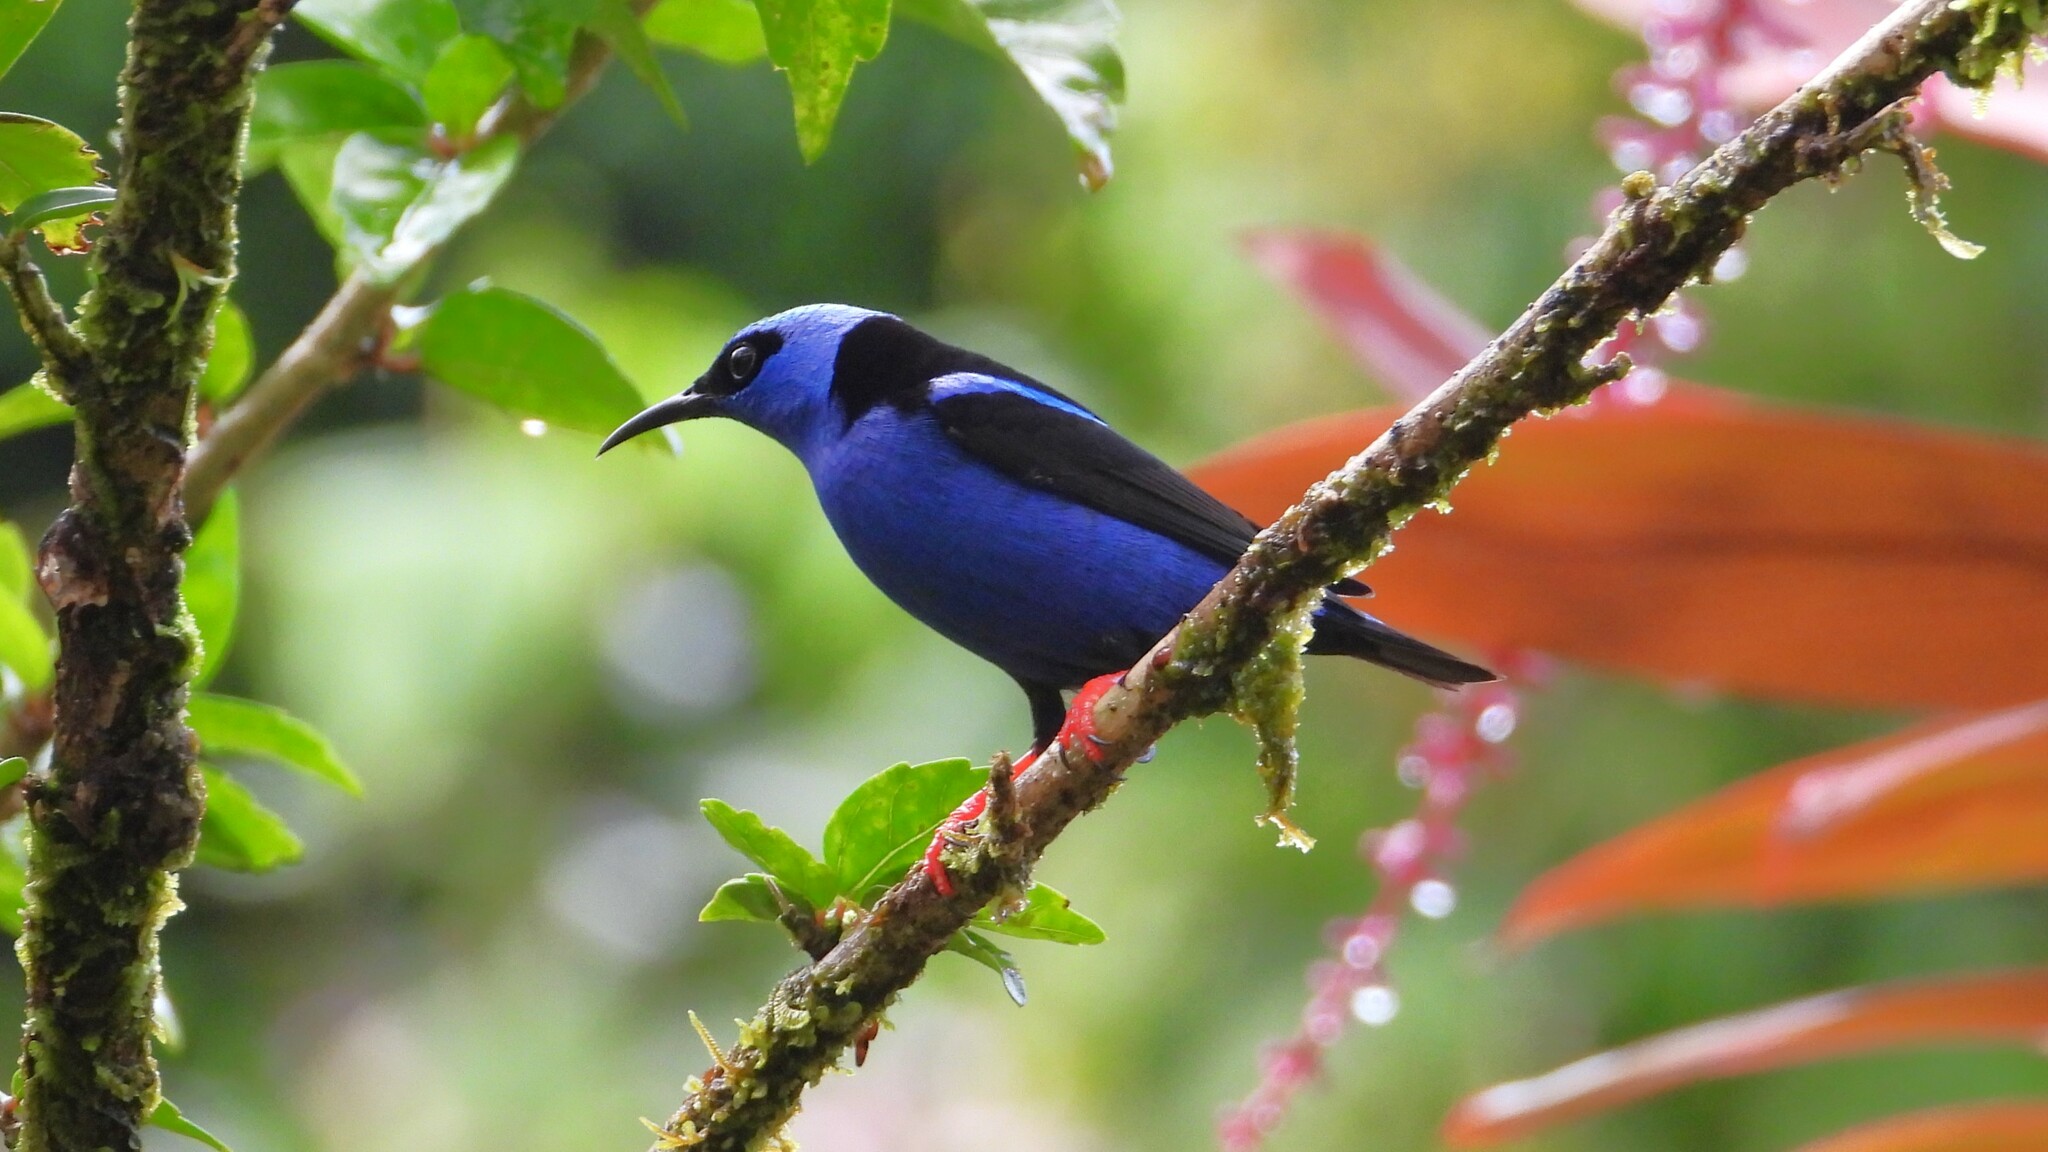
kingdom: Animalia
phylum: Chordata
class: Aves
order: Passeriformes
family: Thraupidae
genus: Cyanerpes
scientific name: Cyanerpes cyaneus
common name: Red-legged honeycreeper
